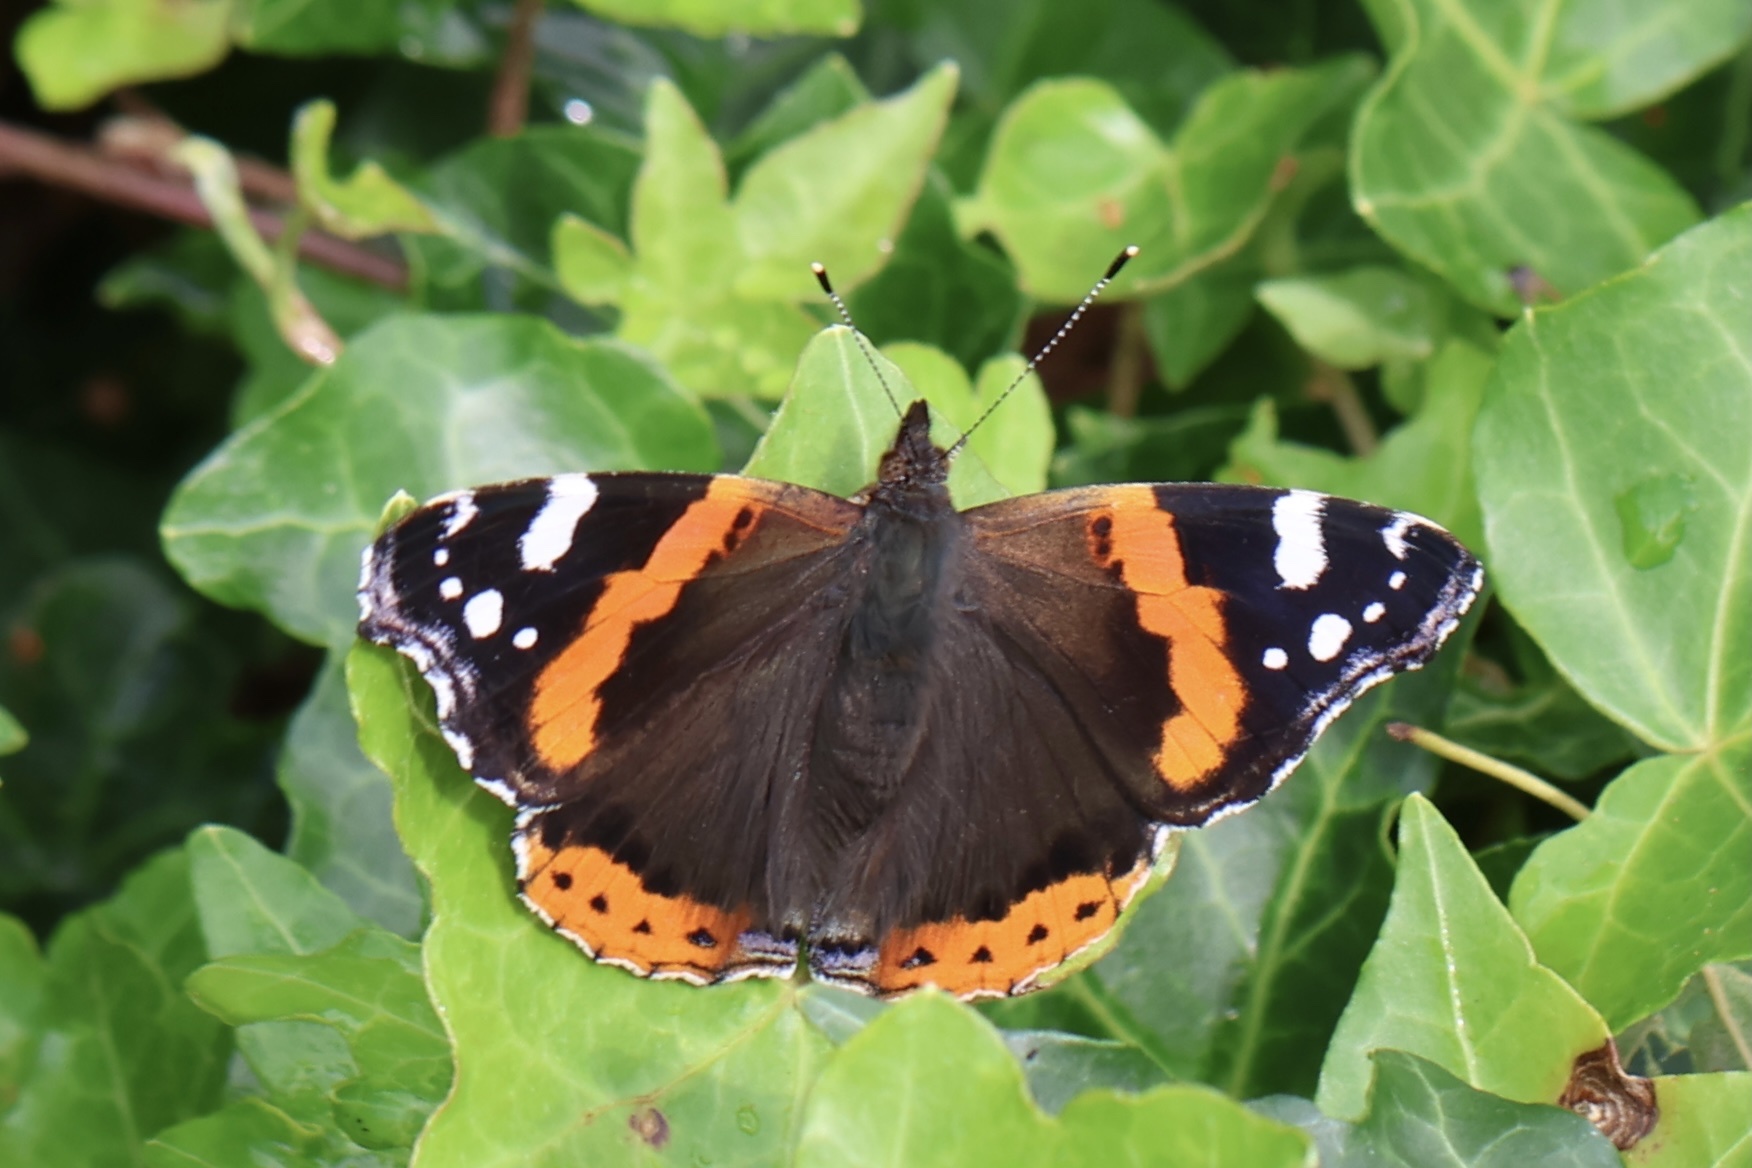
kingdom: Animalia
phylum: Arthropoda
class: Insecta
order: Lepidoptera
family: Nymphalidae
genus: Vanessa
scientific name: Vanessa atalanta
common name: Red admiral
